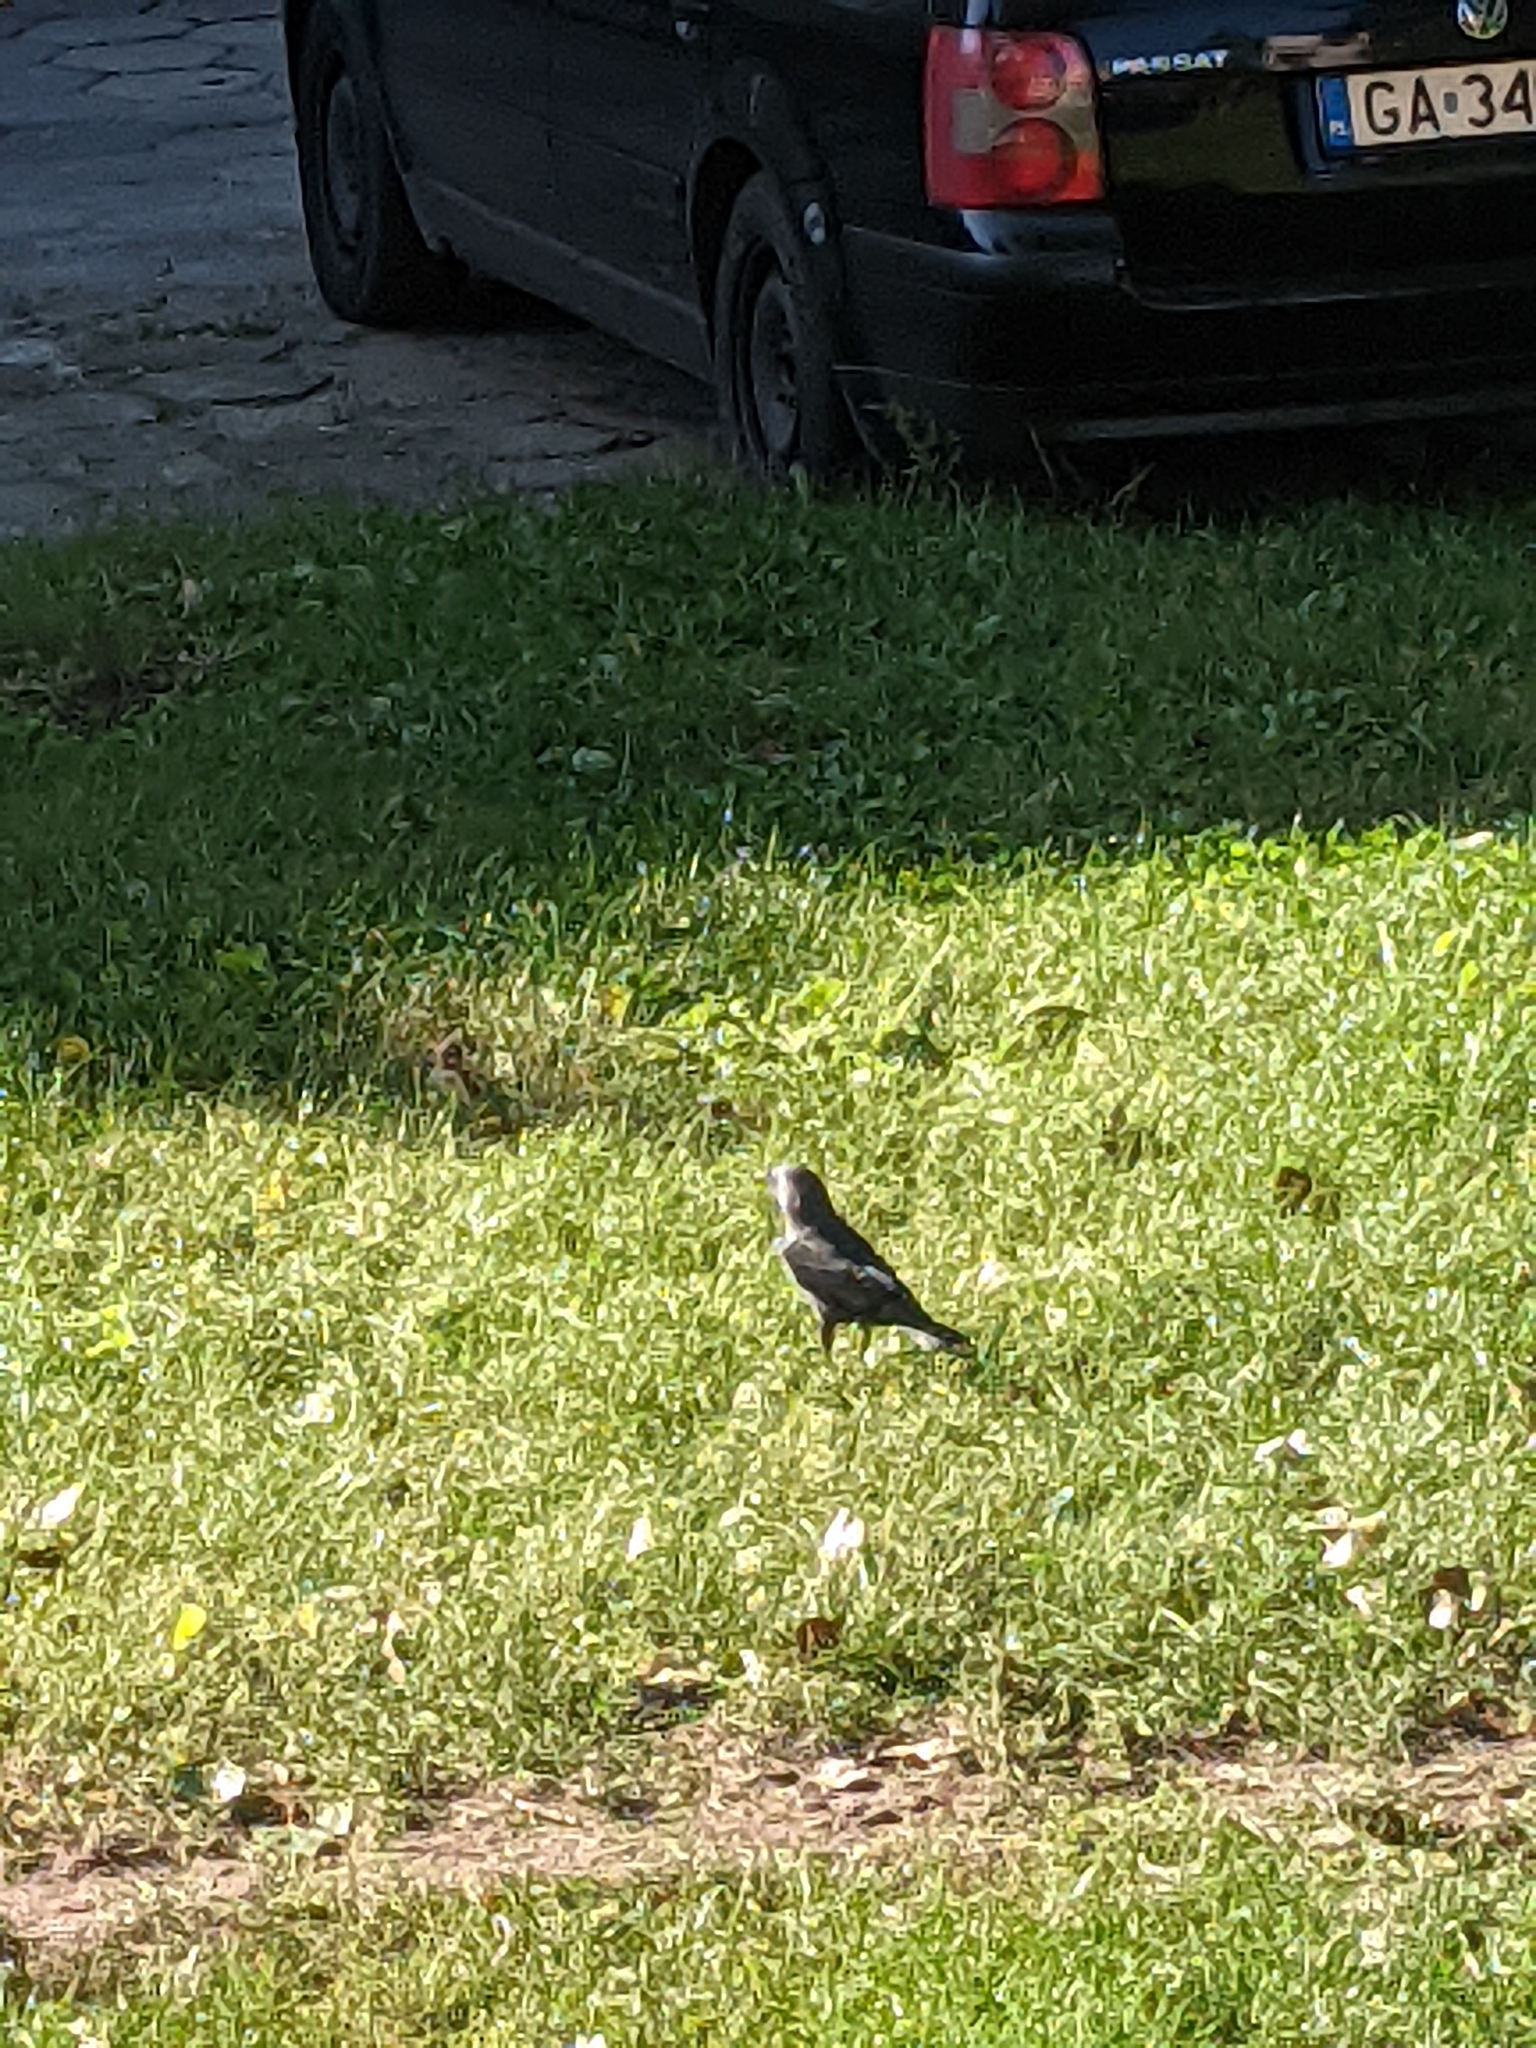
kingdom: Animalia
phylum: Chordata
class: Aves
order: Passeriformes
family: Corvidae
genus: Coloeus
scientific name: Coloeus monedula
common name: Western jackdaw
